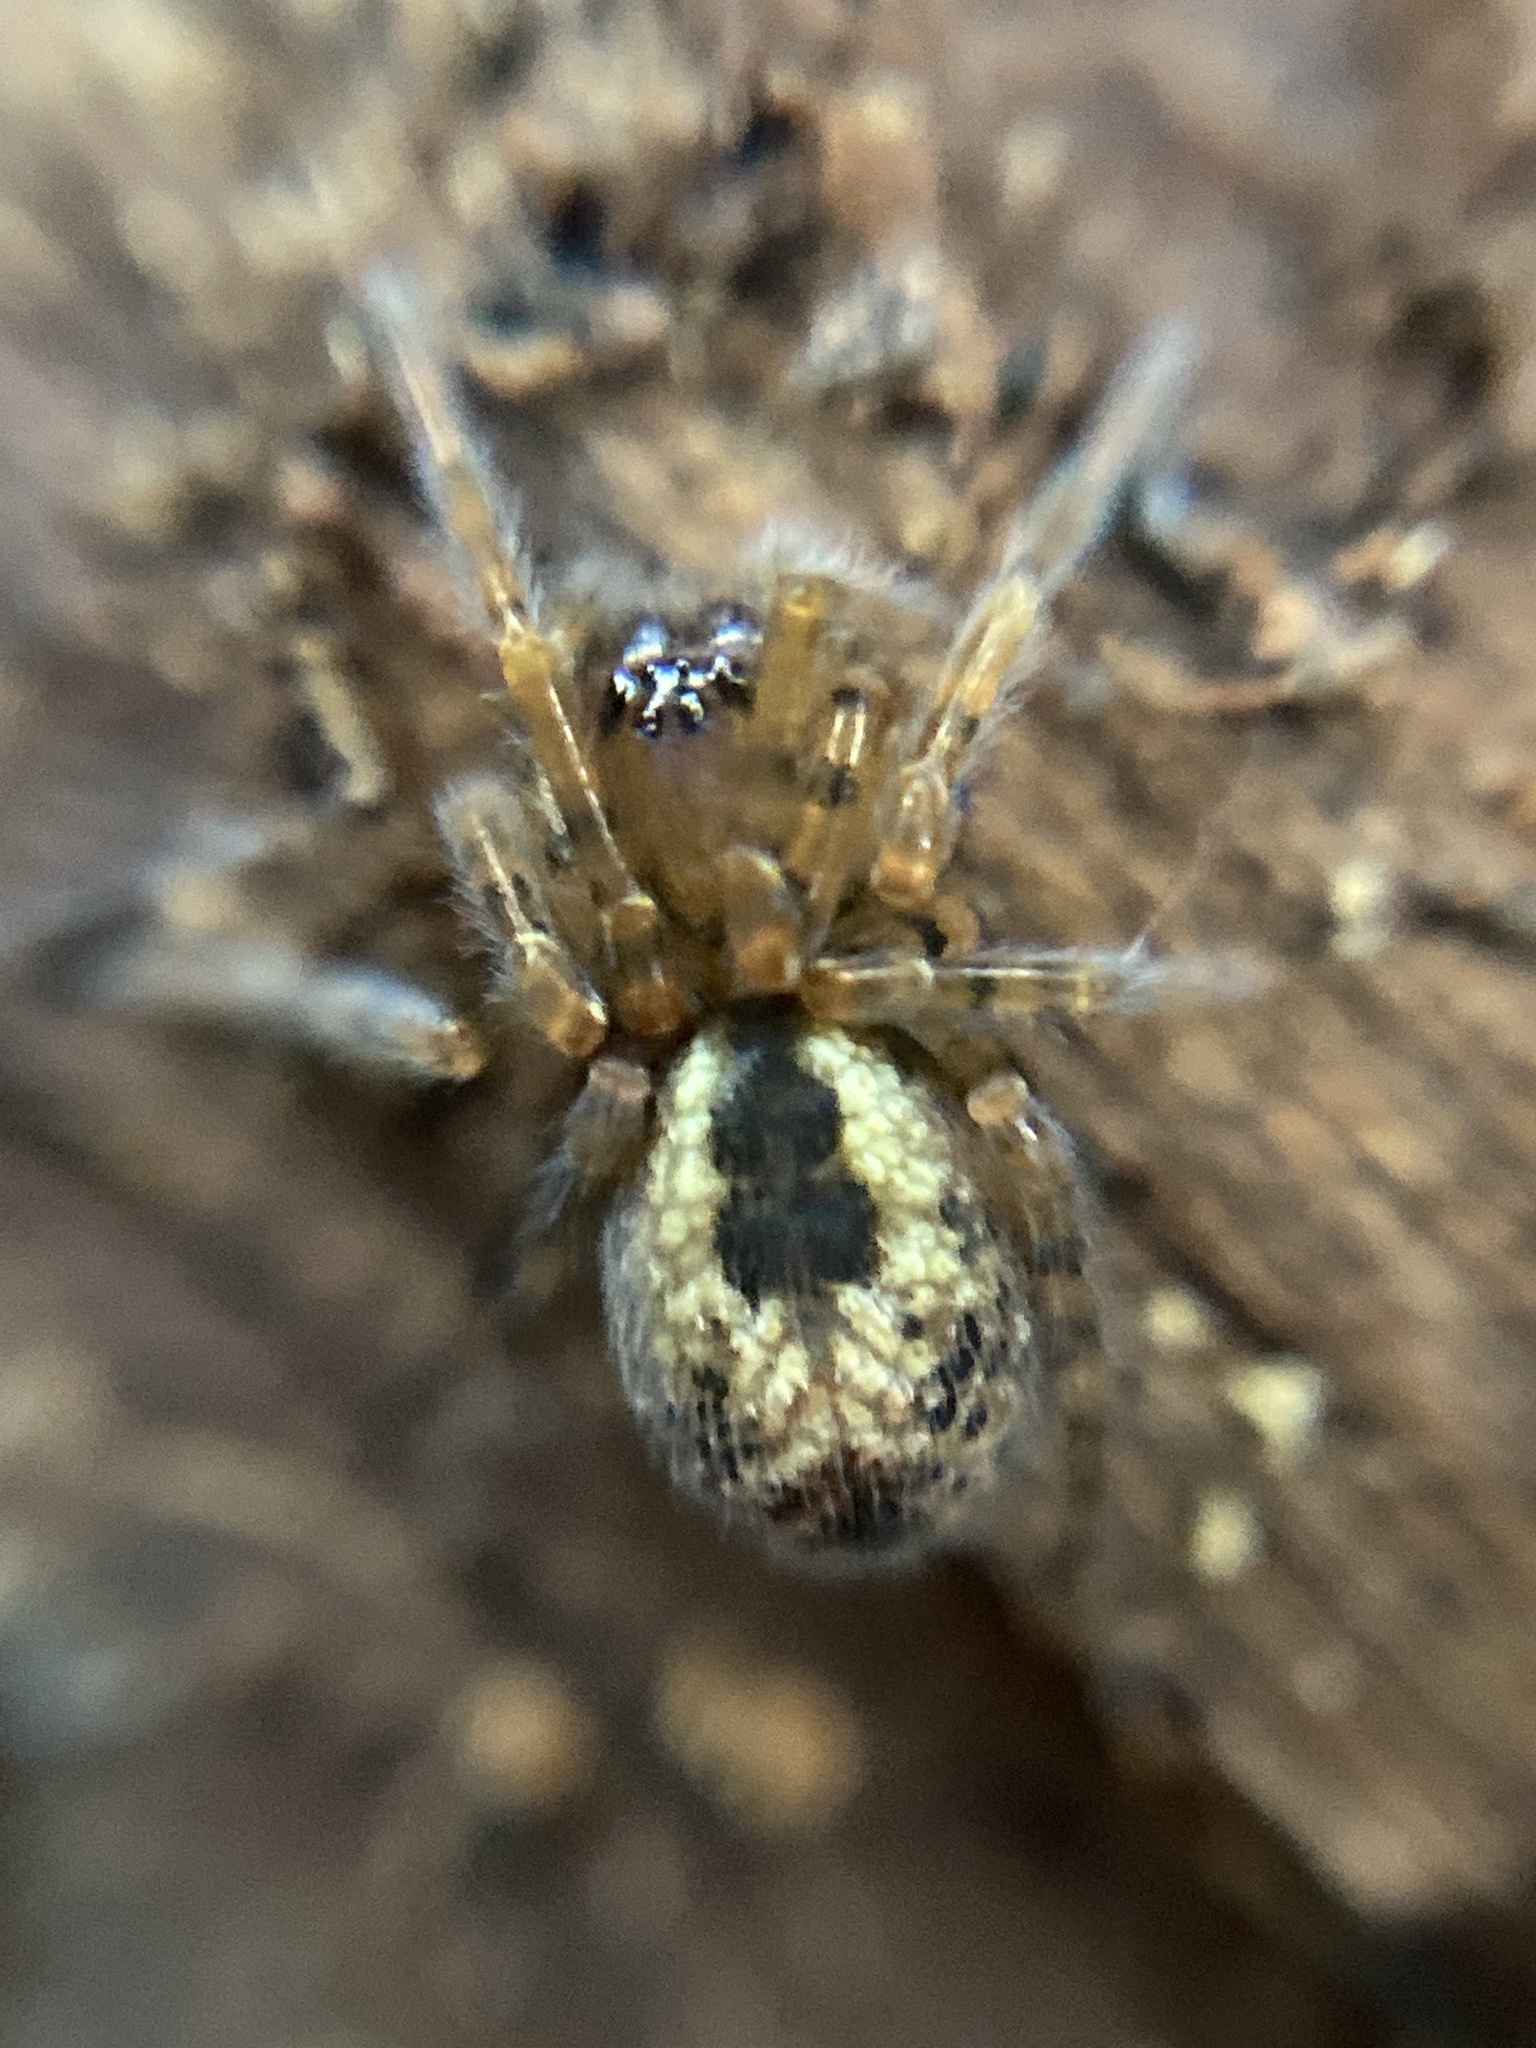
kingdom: Animalia
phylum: Arthropoda
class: Arachnida
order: Araneae
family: Amaurobiidae
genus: Amaurobius
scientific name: Amaurobius fenestralis
